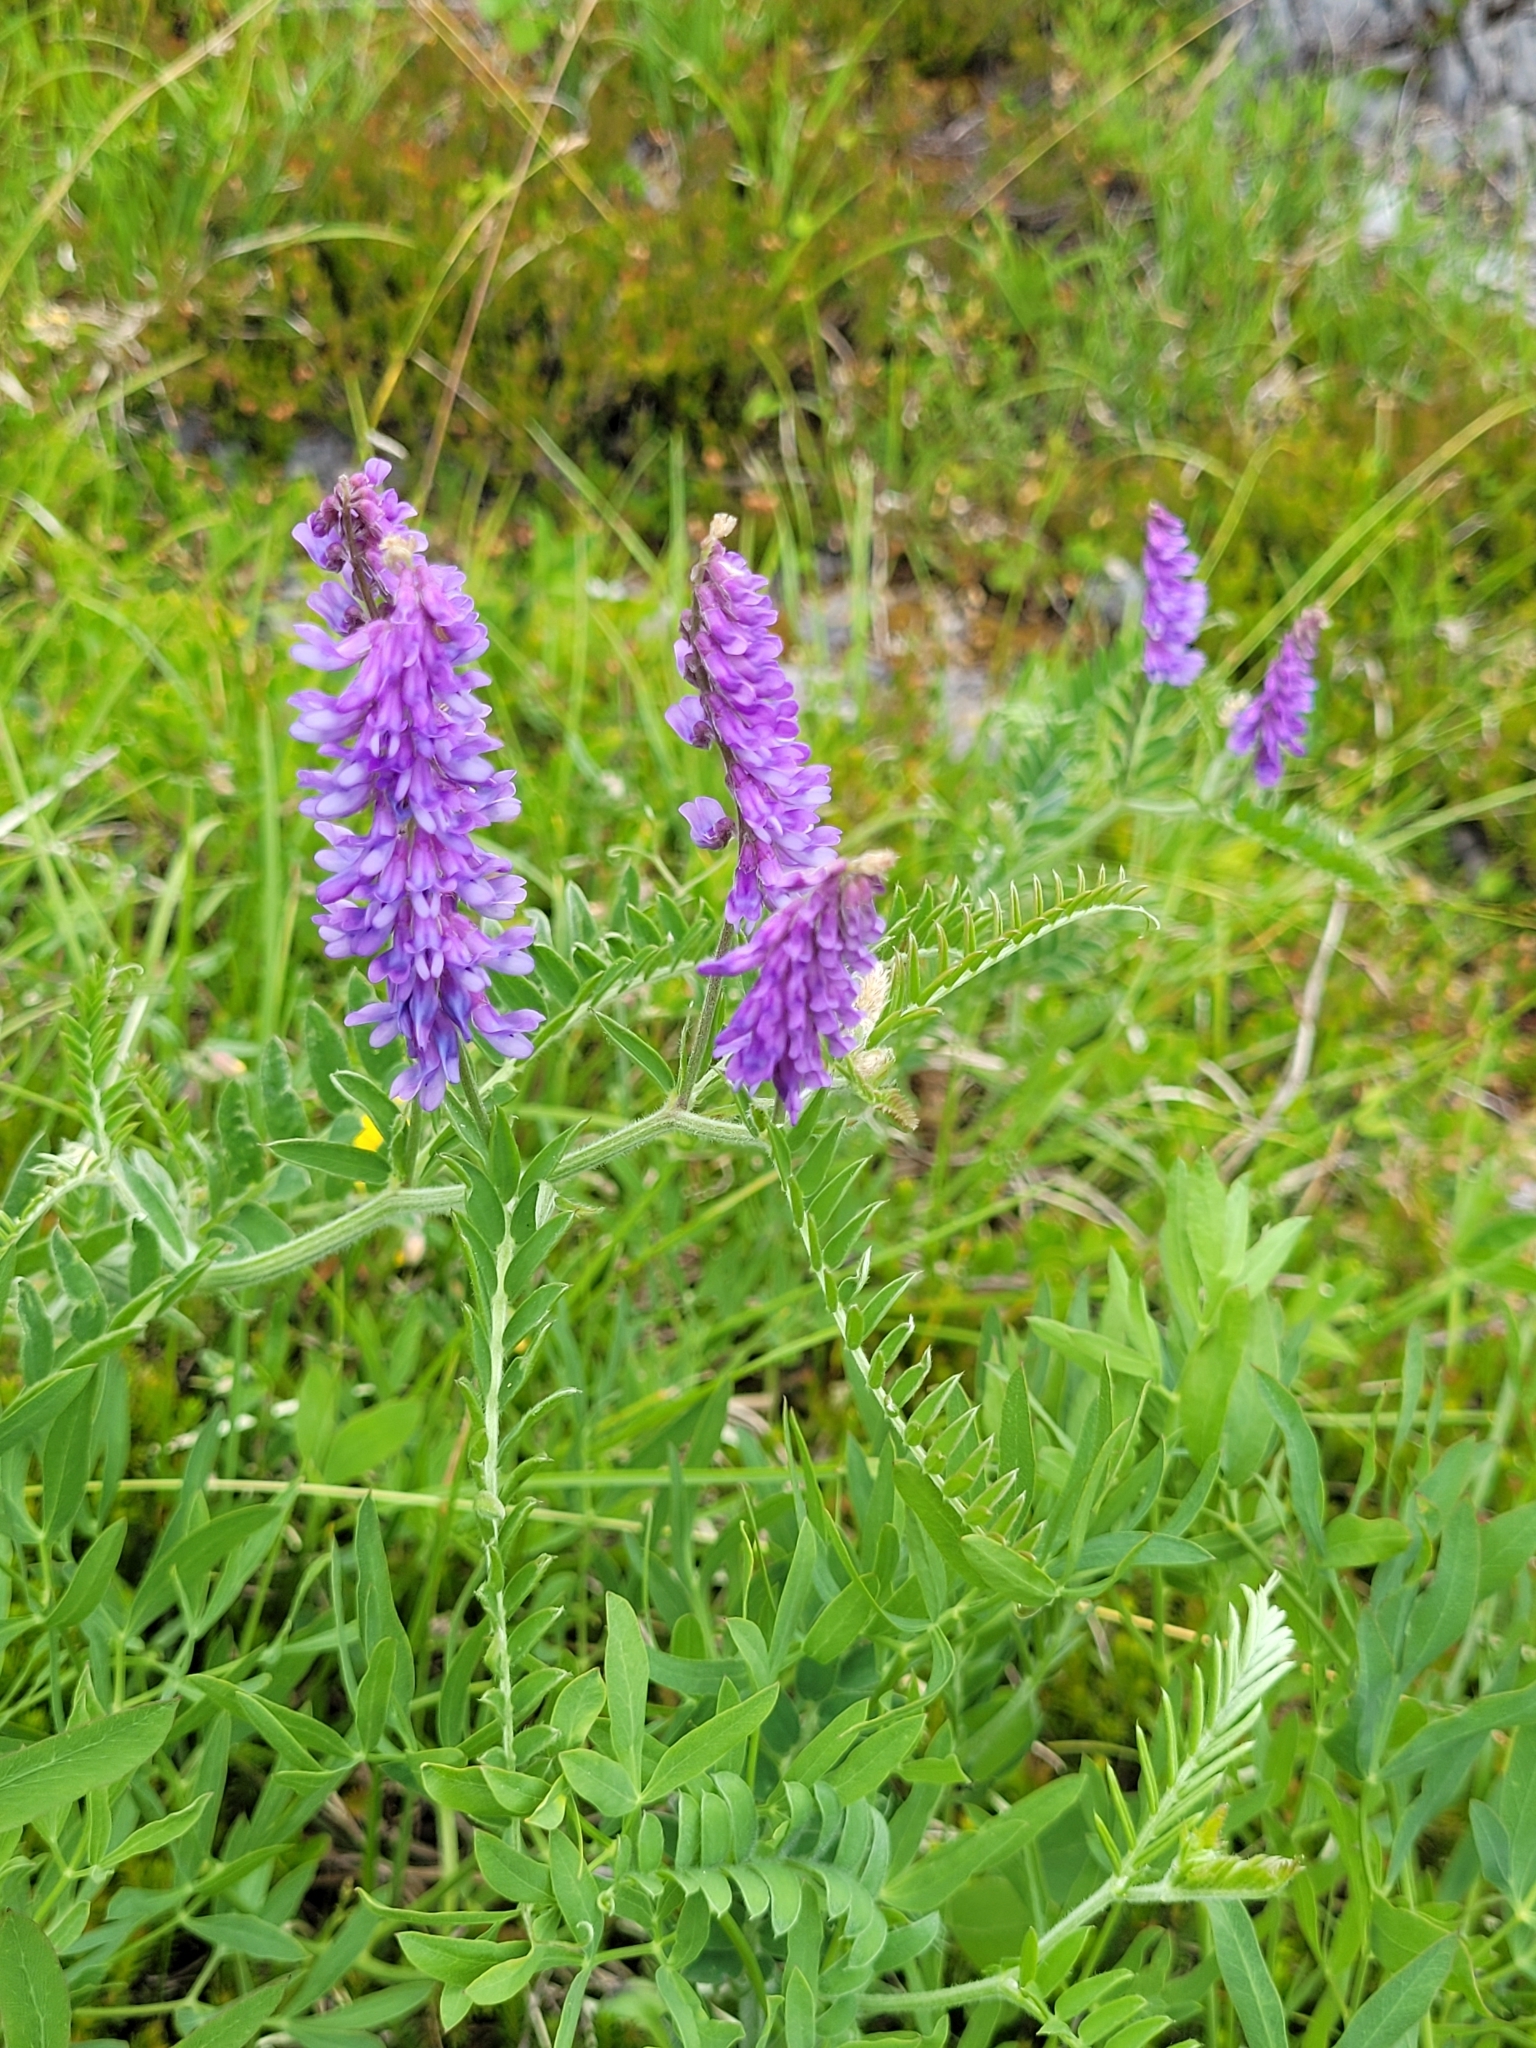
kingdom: Plantae
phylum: Tracheophyta
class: Magnoliopsida
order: Fabales
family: Fabaceae
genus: Vicia
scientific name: Vicia cracca
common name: Bird vetch
